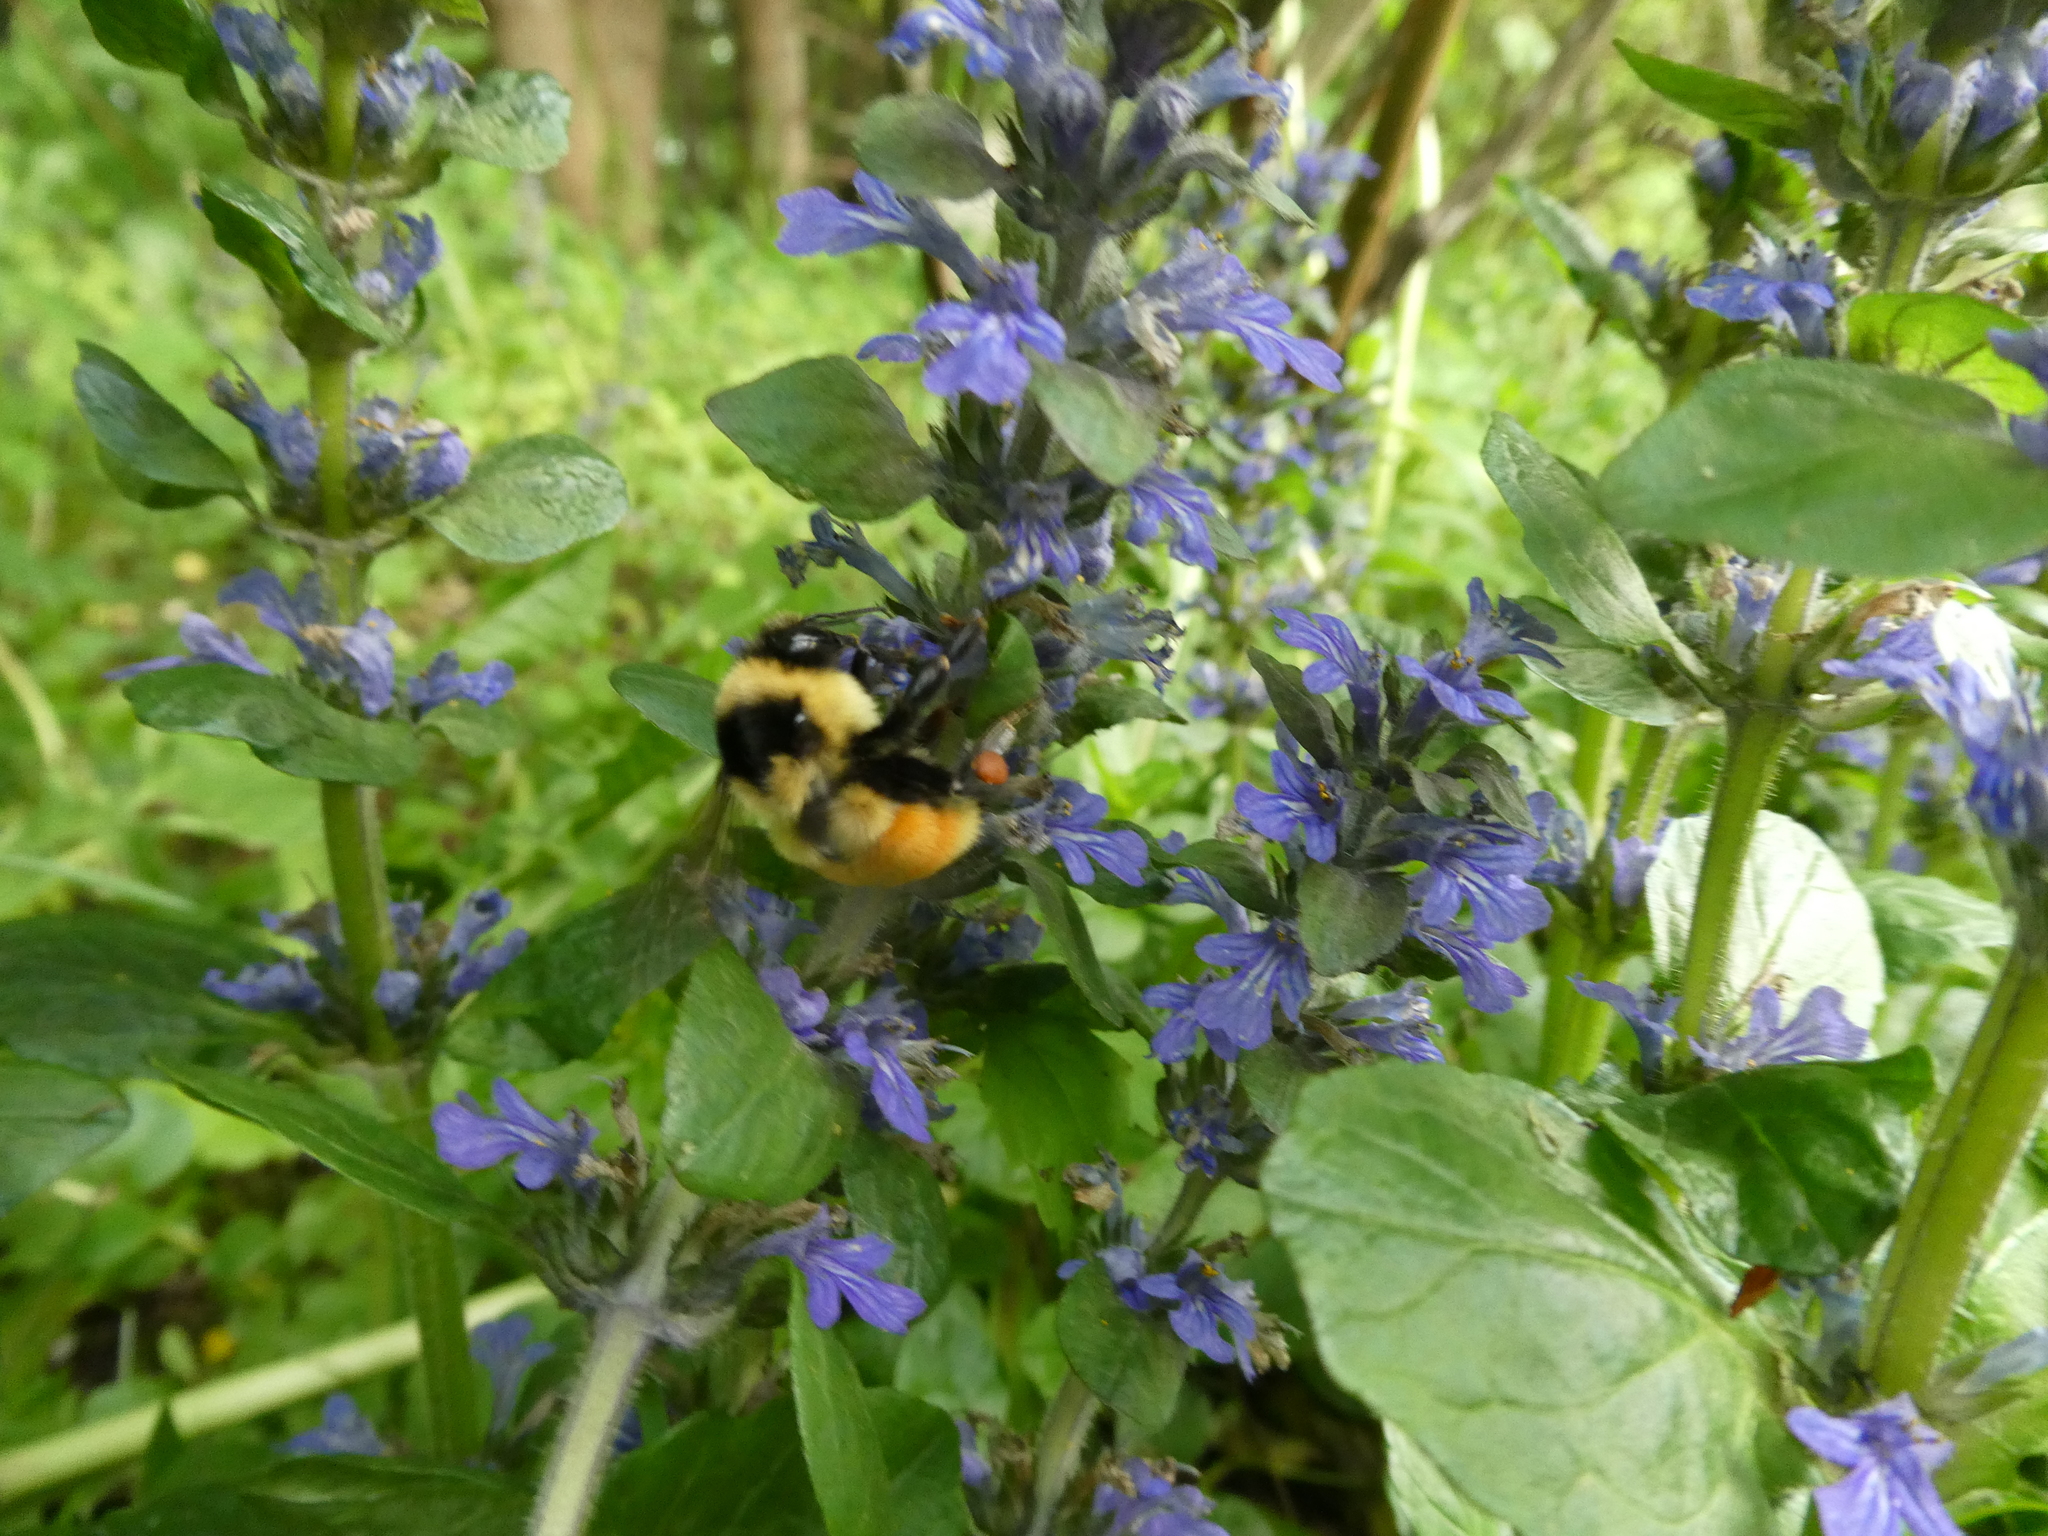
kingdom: Animalia
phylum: Arthropoda
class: Insecta
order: Hymenoptera
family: Apidae
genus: Bombus
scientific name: Bombus ternarius
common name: Tri-colored bumble bee
